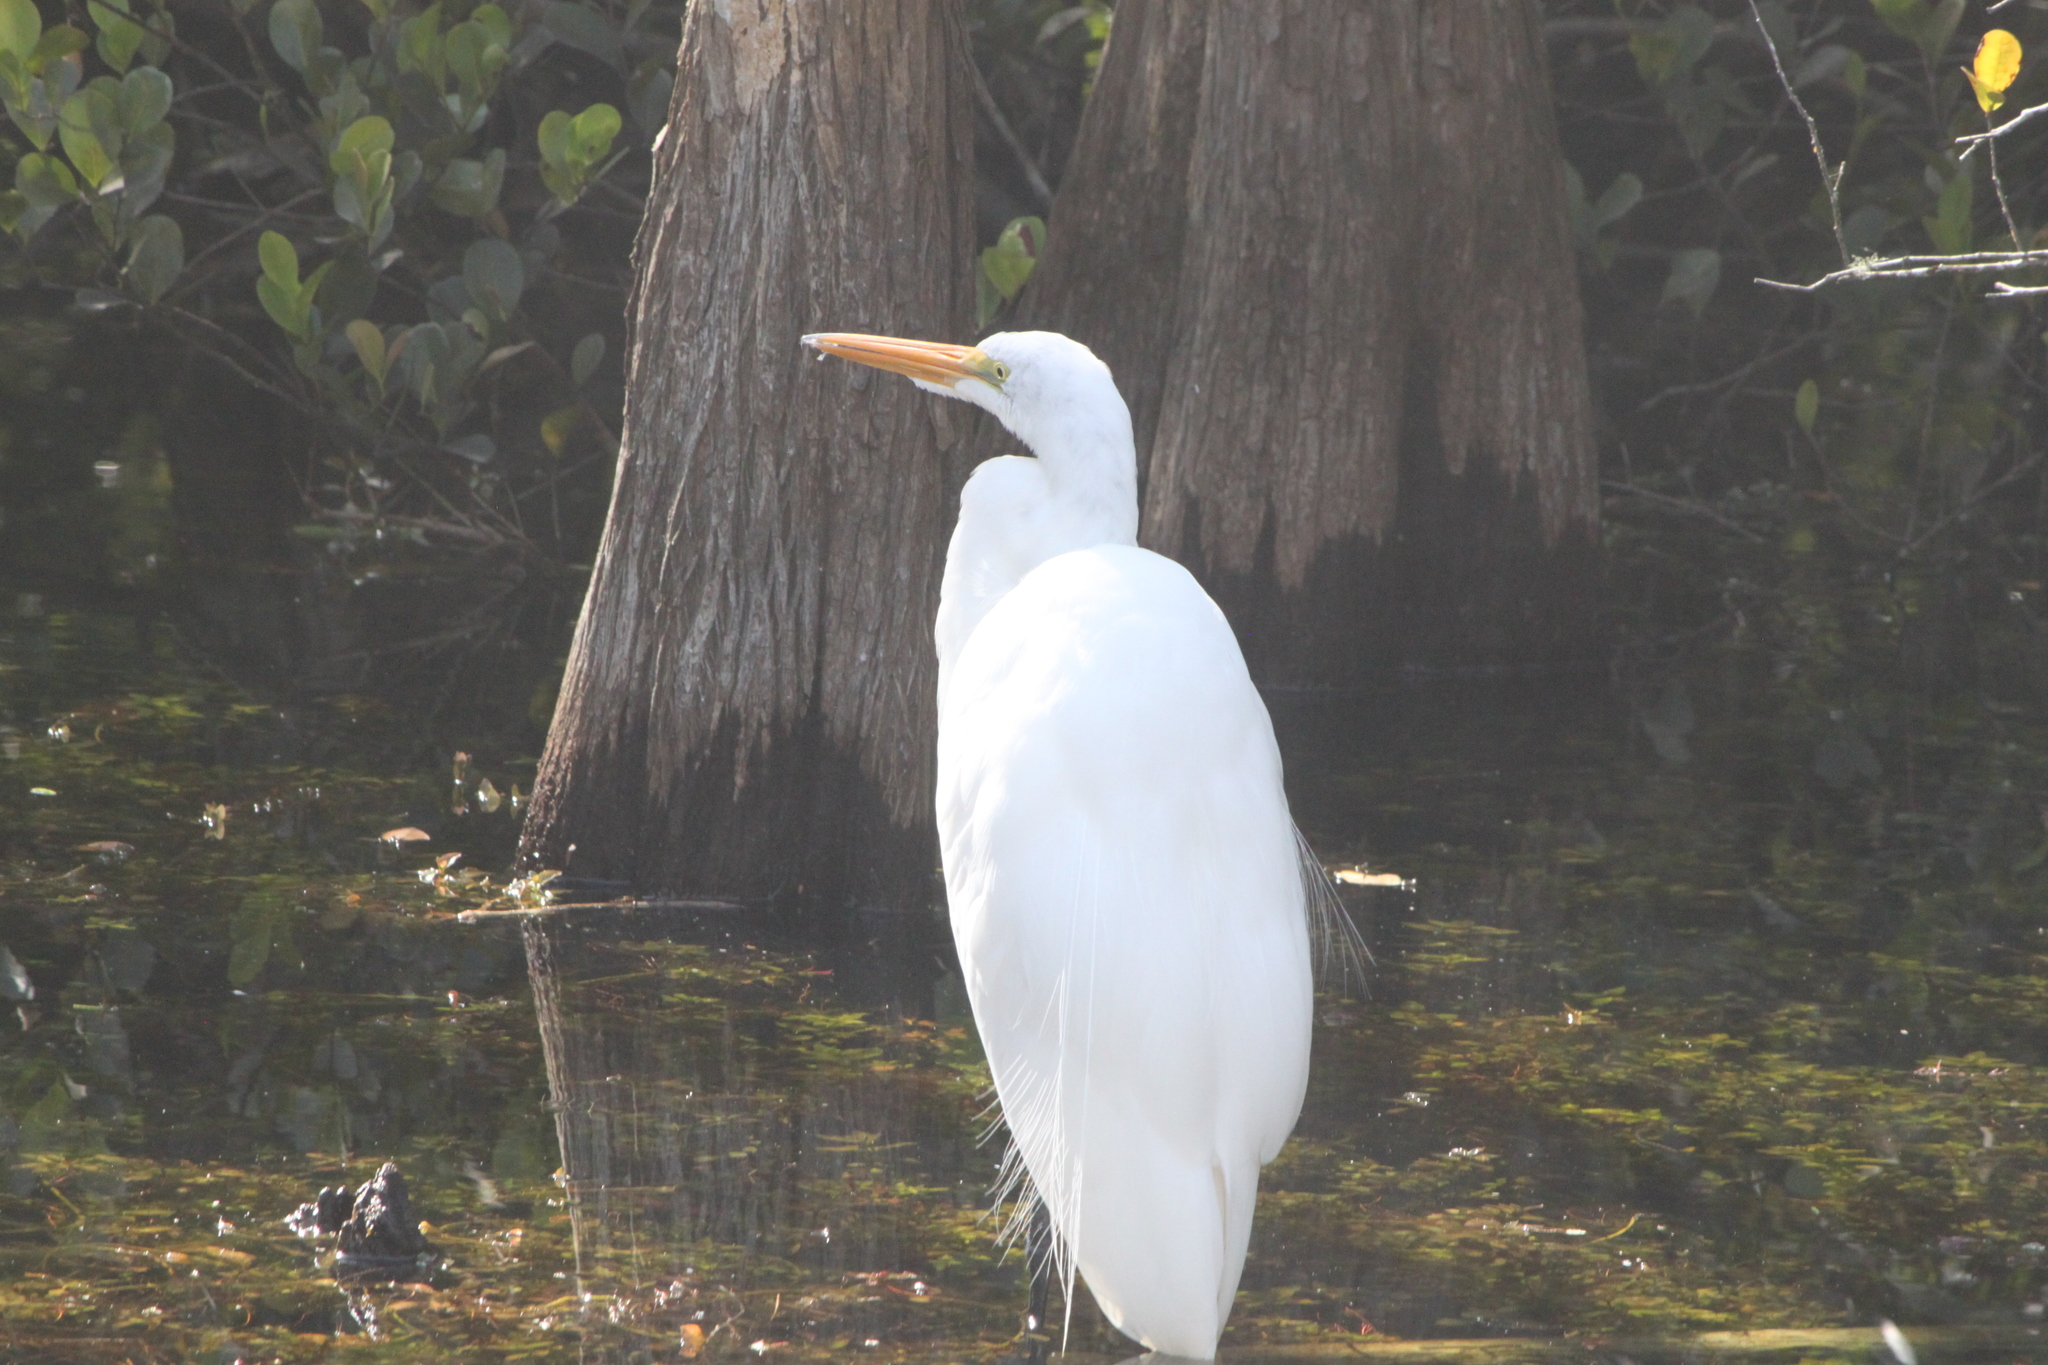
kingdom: Animalia
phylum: Chordata
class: Aves
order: Pelecaniformes
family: Ardeidae
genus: Ardea
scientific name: Ardea alba
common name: Great egret
